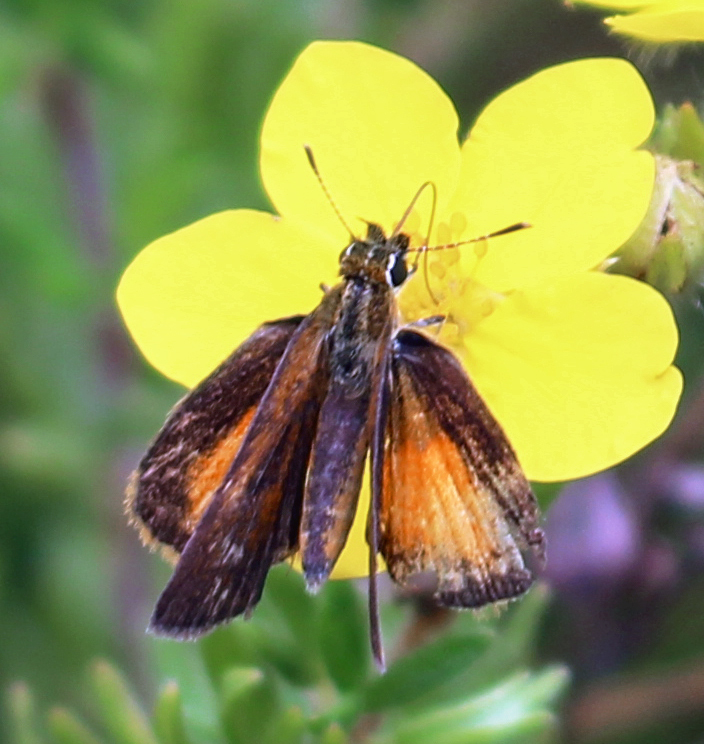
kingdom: Animalia
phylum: Arthropoda
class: Insecta
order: Lepidoptera
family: Hesperiidae
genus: Ancyloxypha
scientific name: Ancyloxypha numitor
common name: Least skipper
